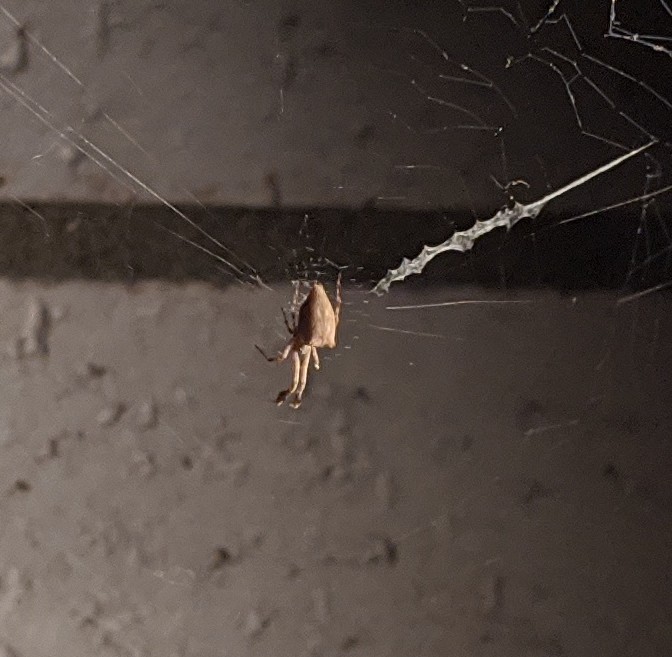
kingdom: Animalia
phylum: Arthropoda
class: Arachnida
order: Araneae
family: Uloboridae
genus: Uloborus
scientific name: Uloborus glomosus
